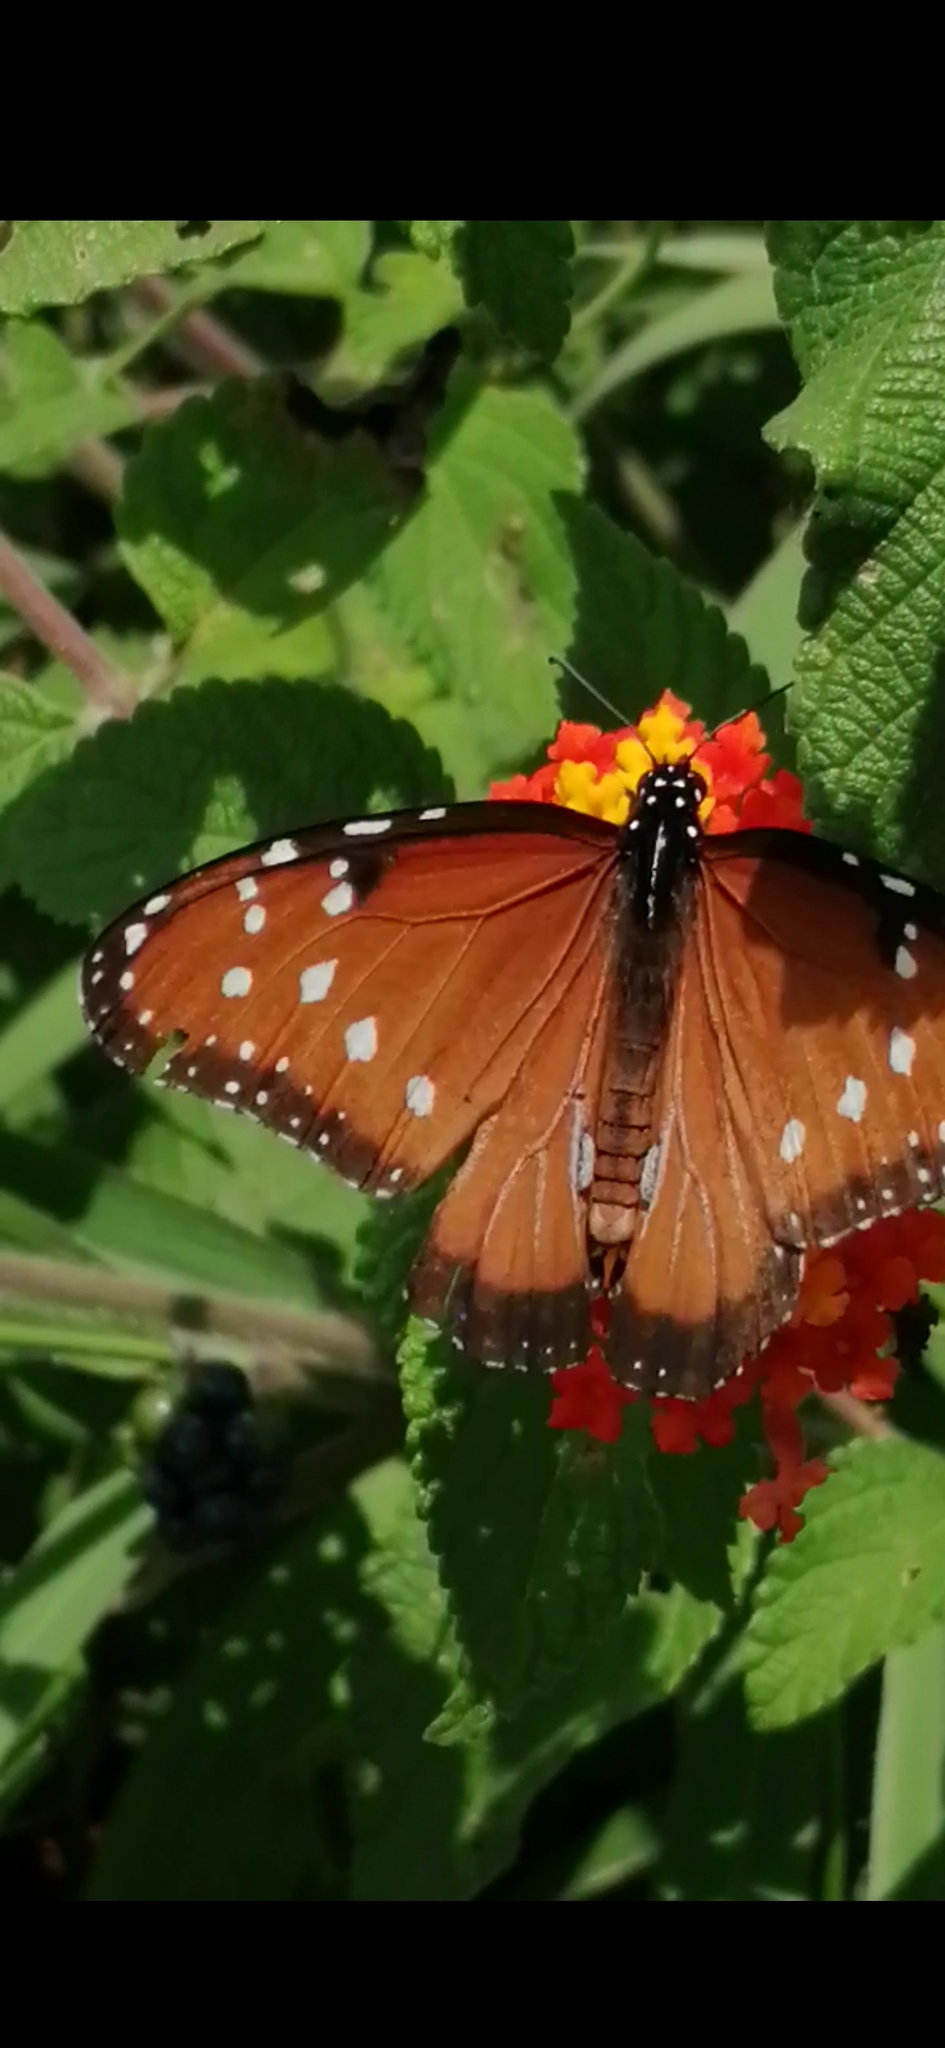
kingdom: Animalia
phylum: Arthropoda
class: Insecta
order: Lepidoptera
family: Nymphalidae
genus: Danaus
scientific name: Danaus gilippus
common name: Queen
